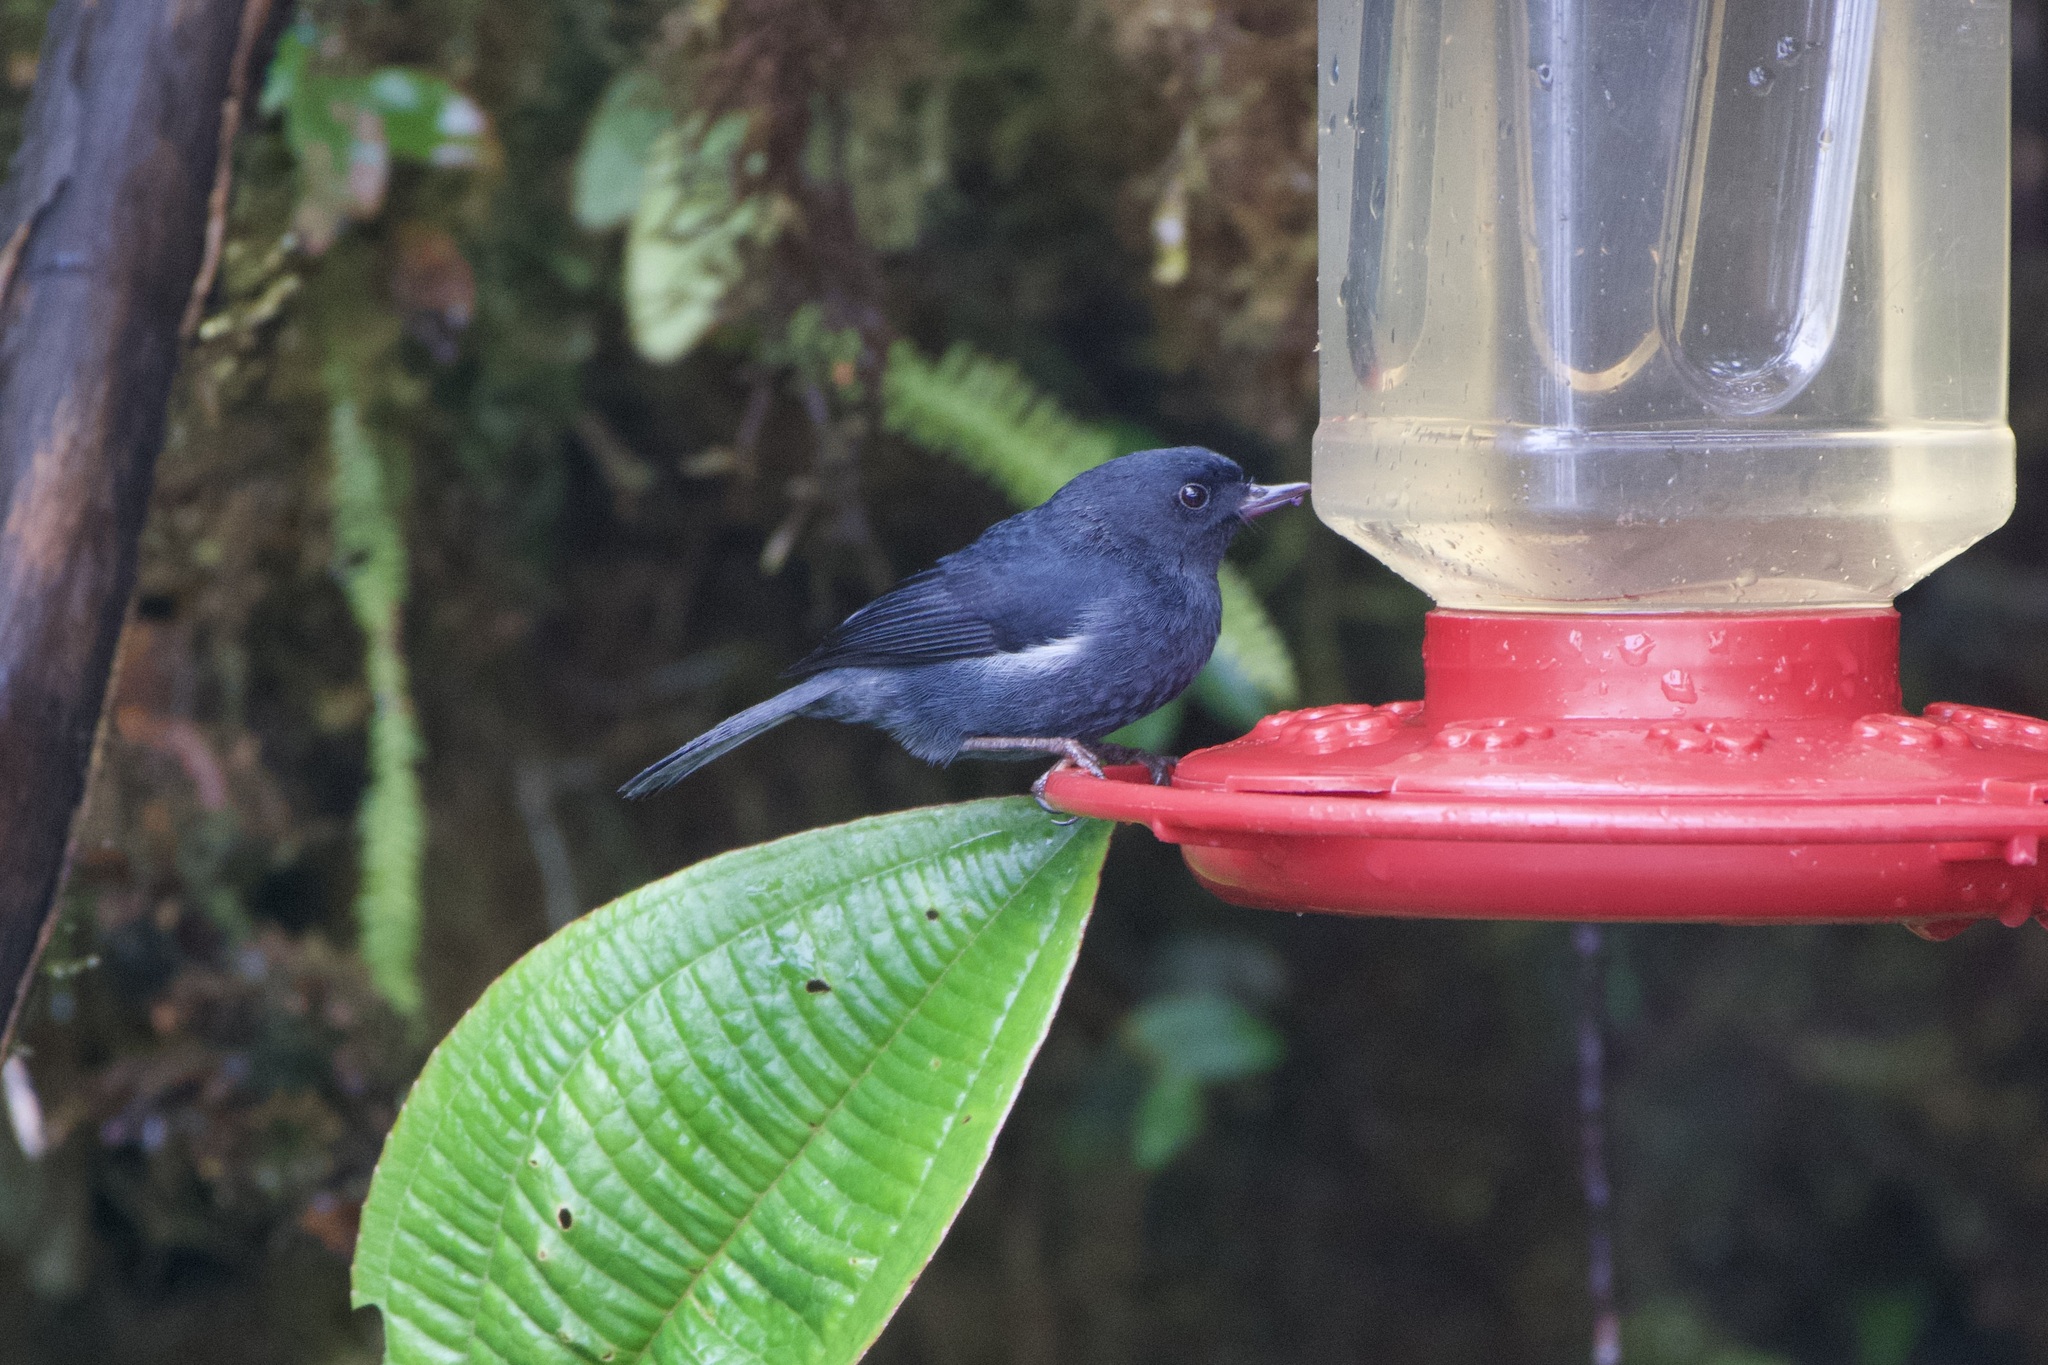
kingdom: Animalia
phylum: Chordata
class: Aves
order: Passeriformes
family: Thraupidae
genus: Diglossa
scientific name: Diglossa albilatera
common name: White-sided flowerpiercer
